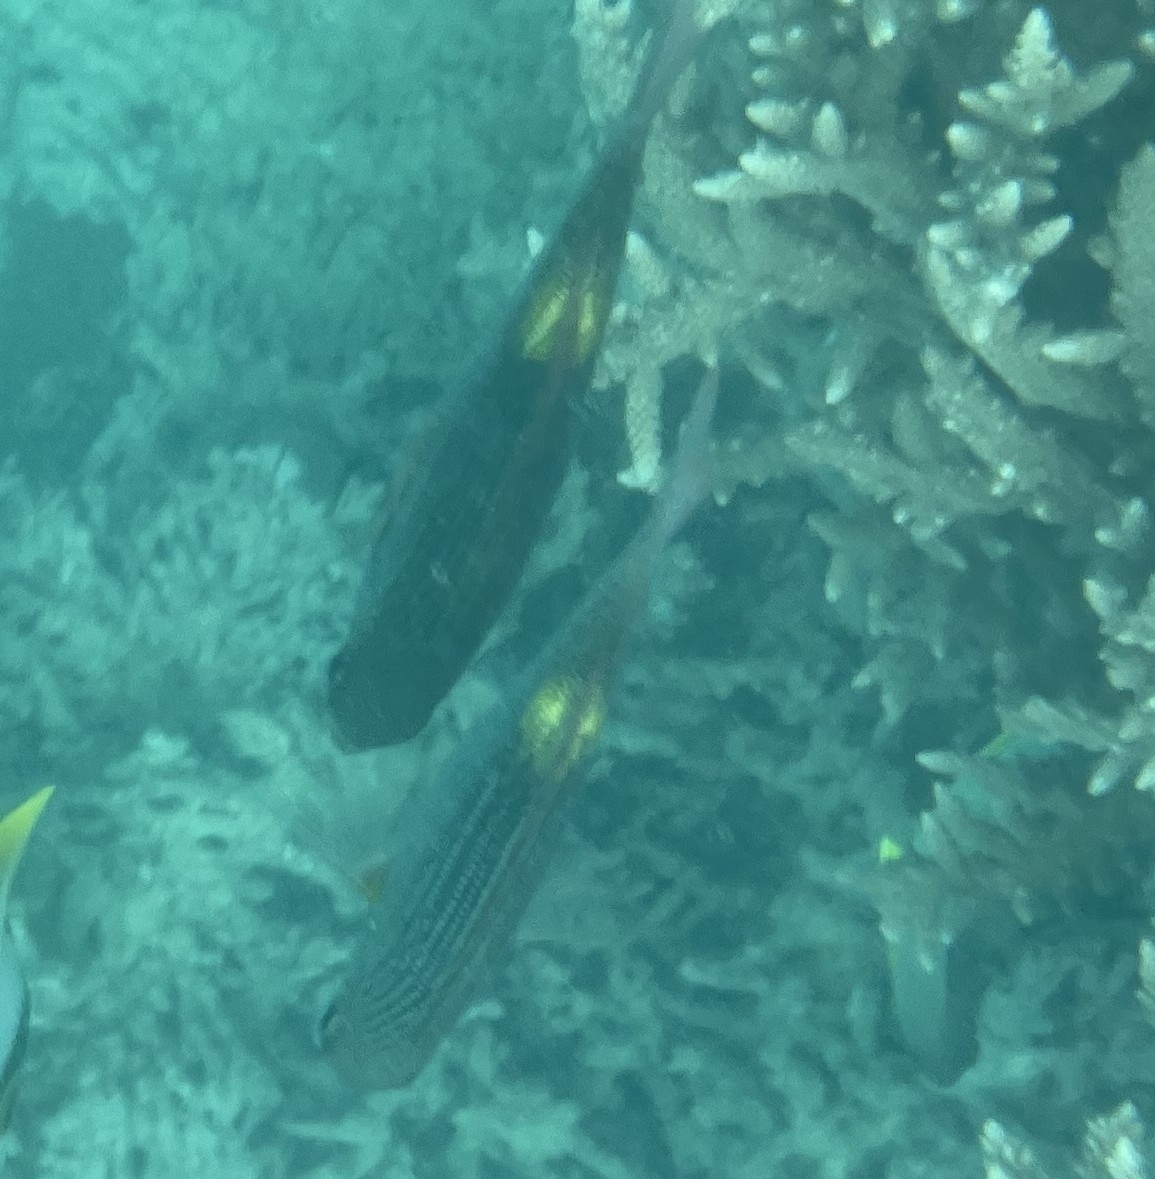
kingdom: Animalia
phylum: Chordata
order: Perciformes
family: Lethrinidae
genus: Gnathodentex
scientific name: Gnathodentex aureolineatus
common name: Gold-lined sea bream
